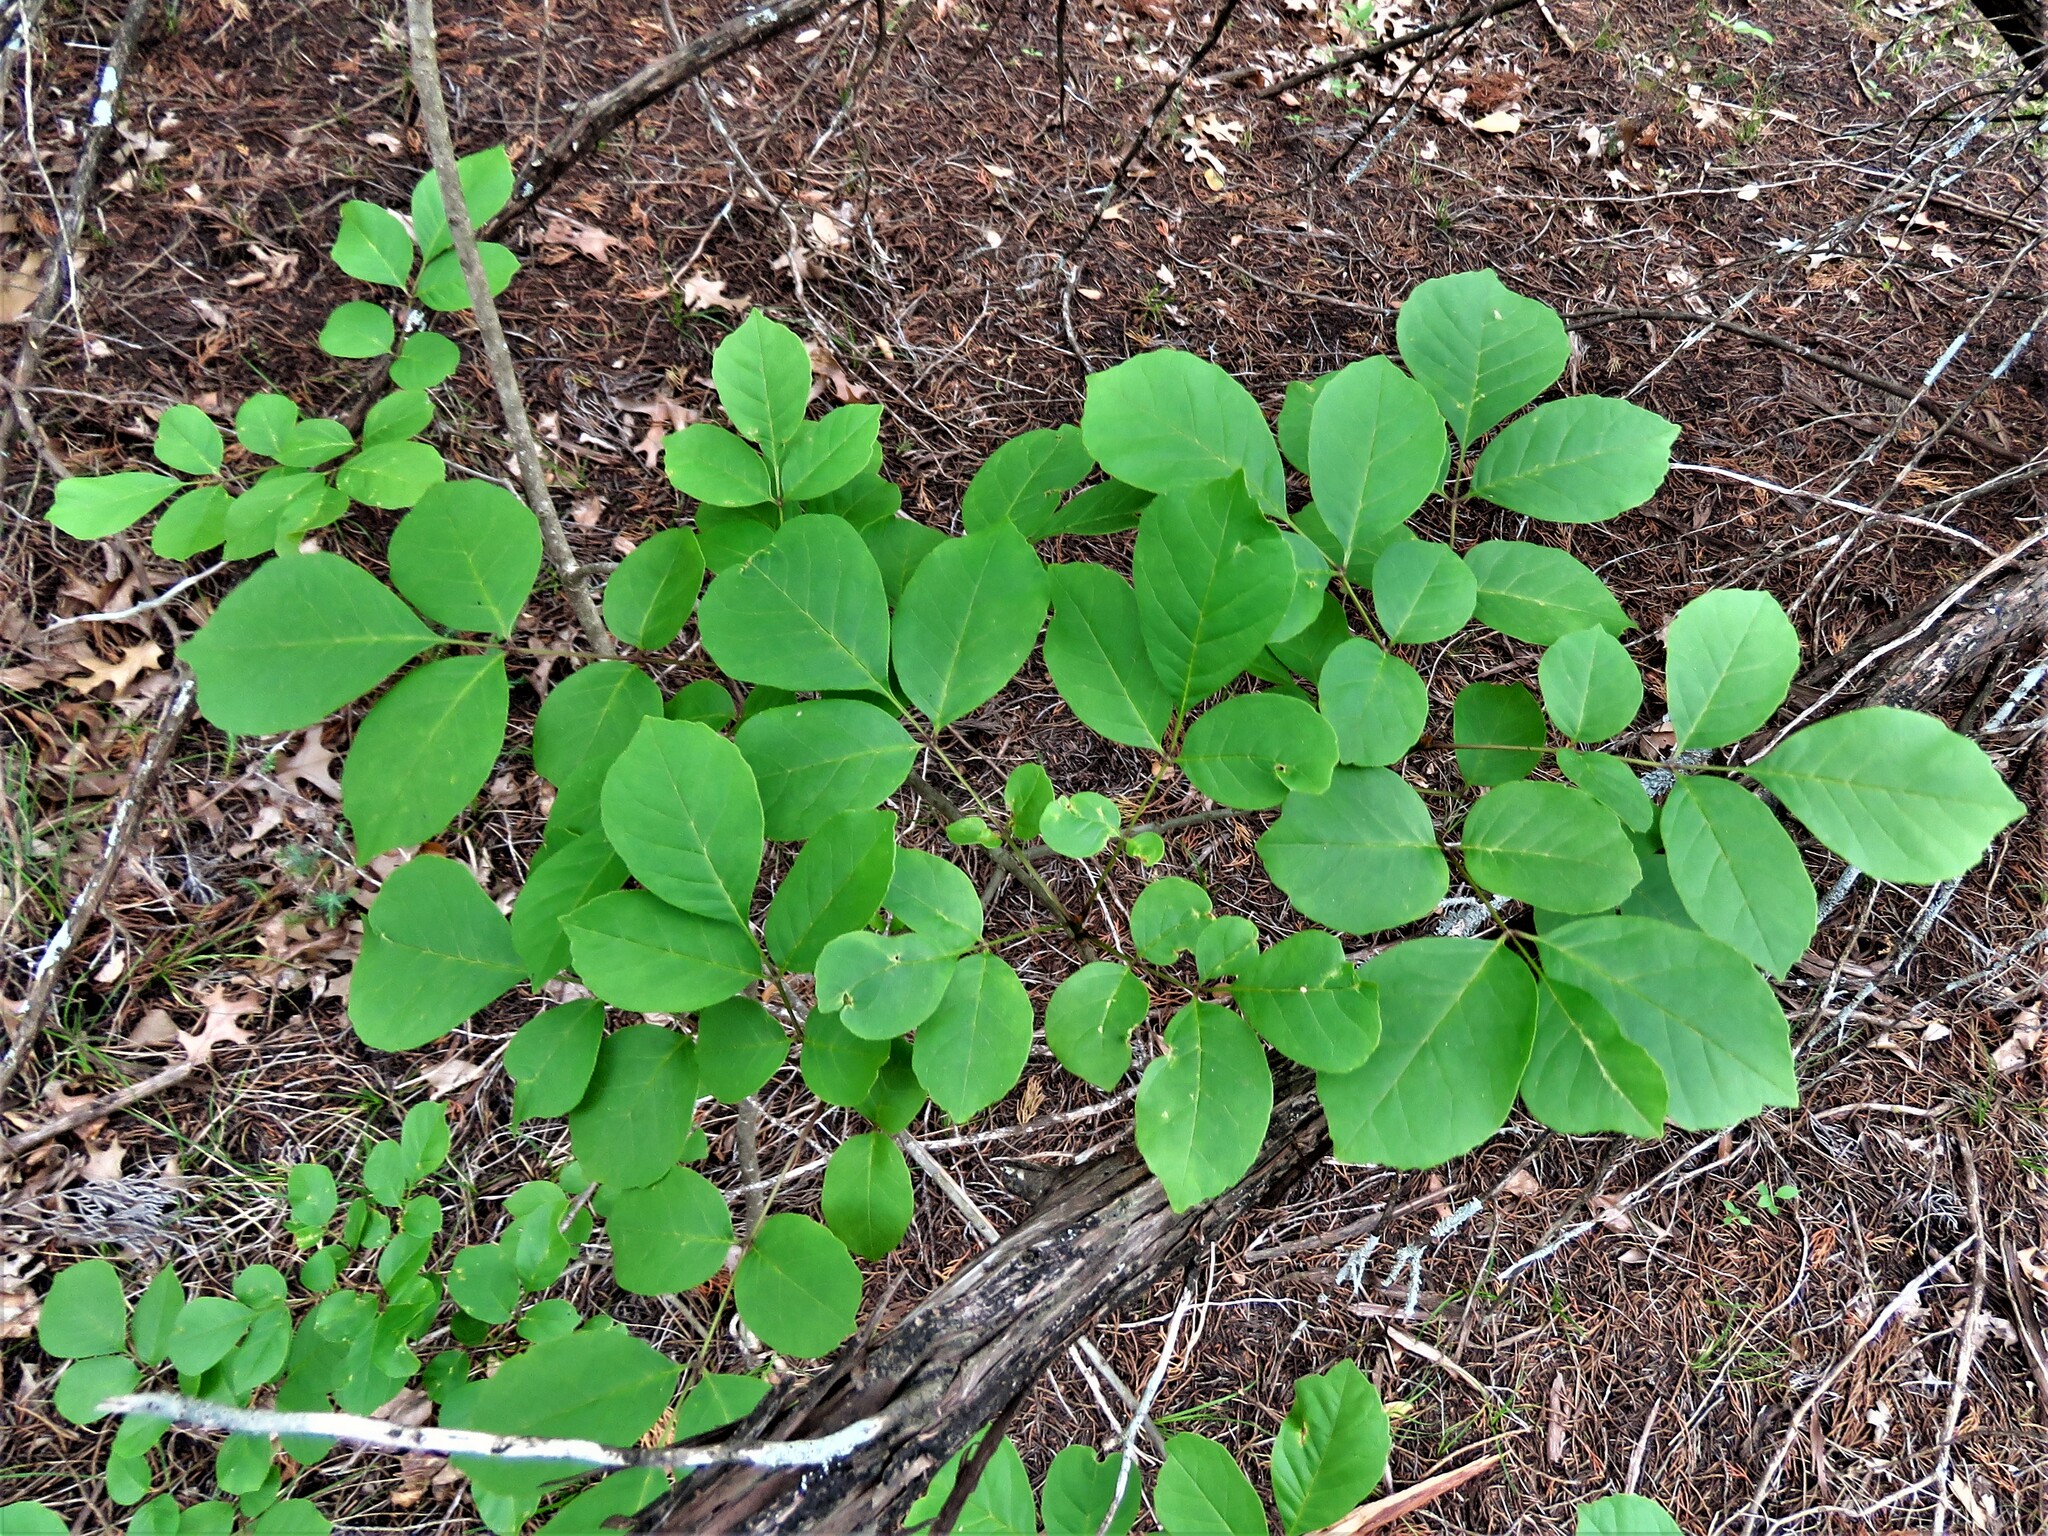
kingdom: Plantae
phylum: Tracheophyta
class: Magnoliopsida
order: Lamiales
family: Oleaceae
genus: Fraxinus
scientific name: Fraxinus albicans
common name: Texas ash
